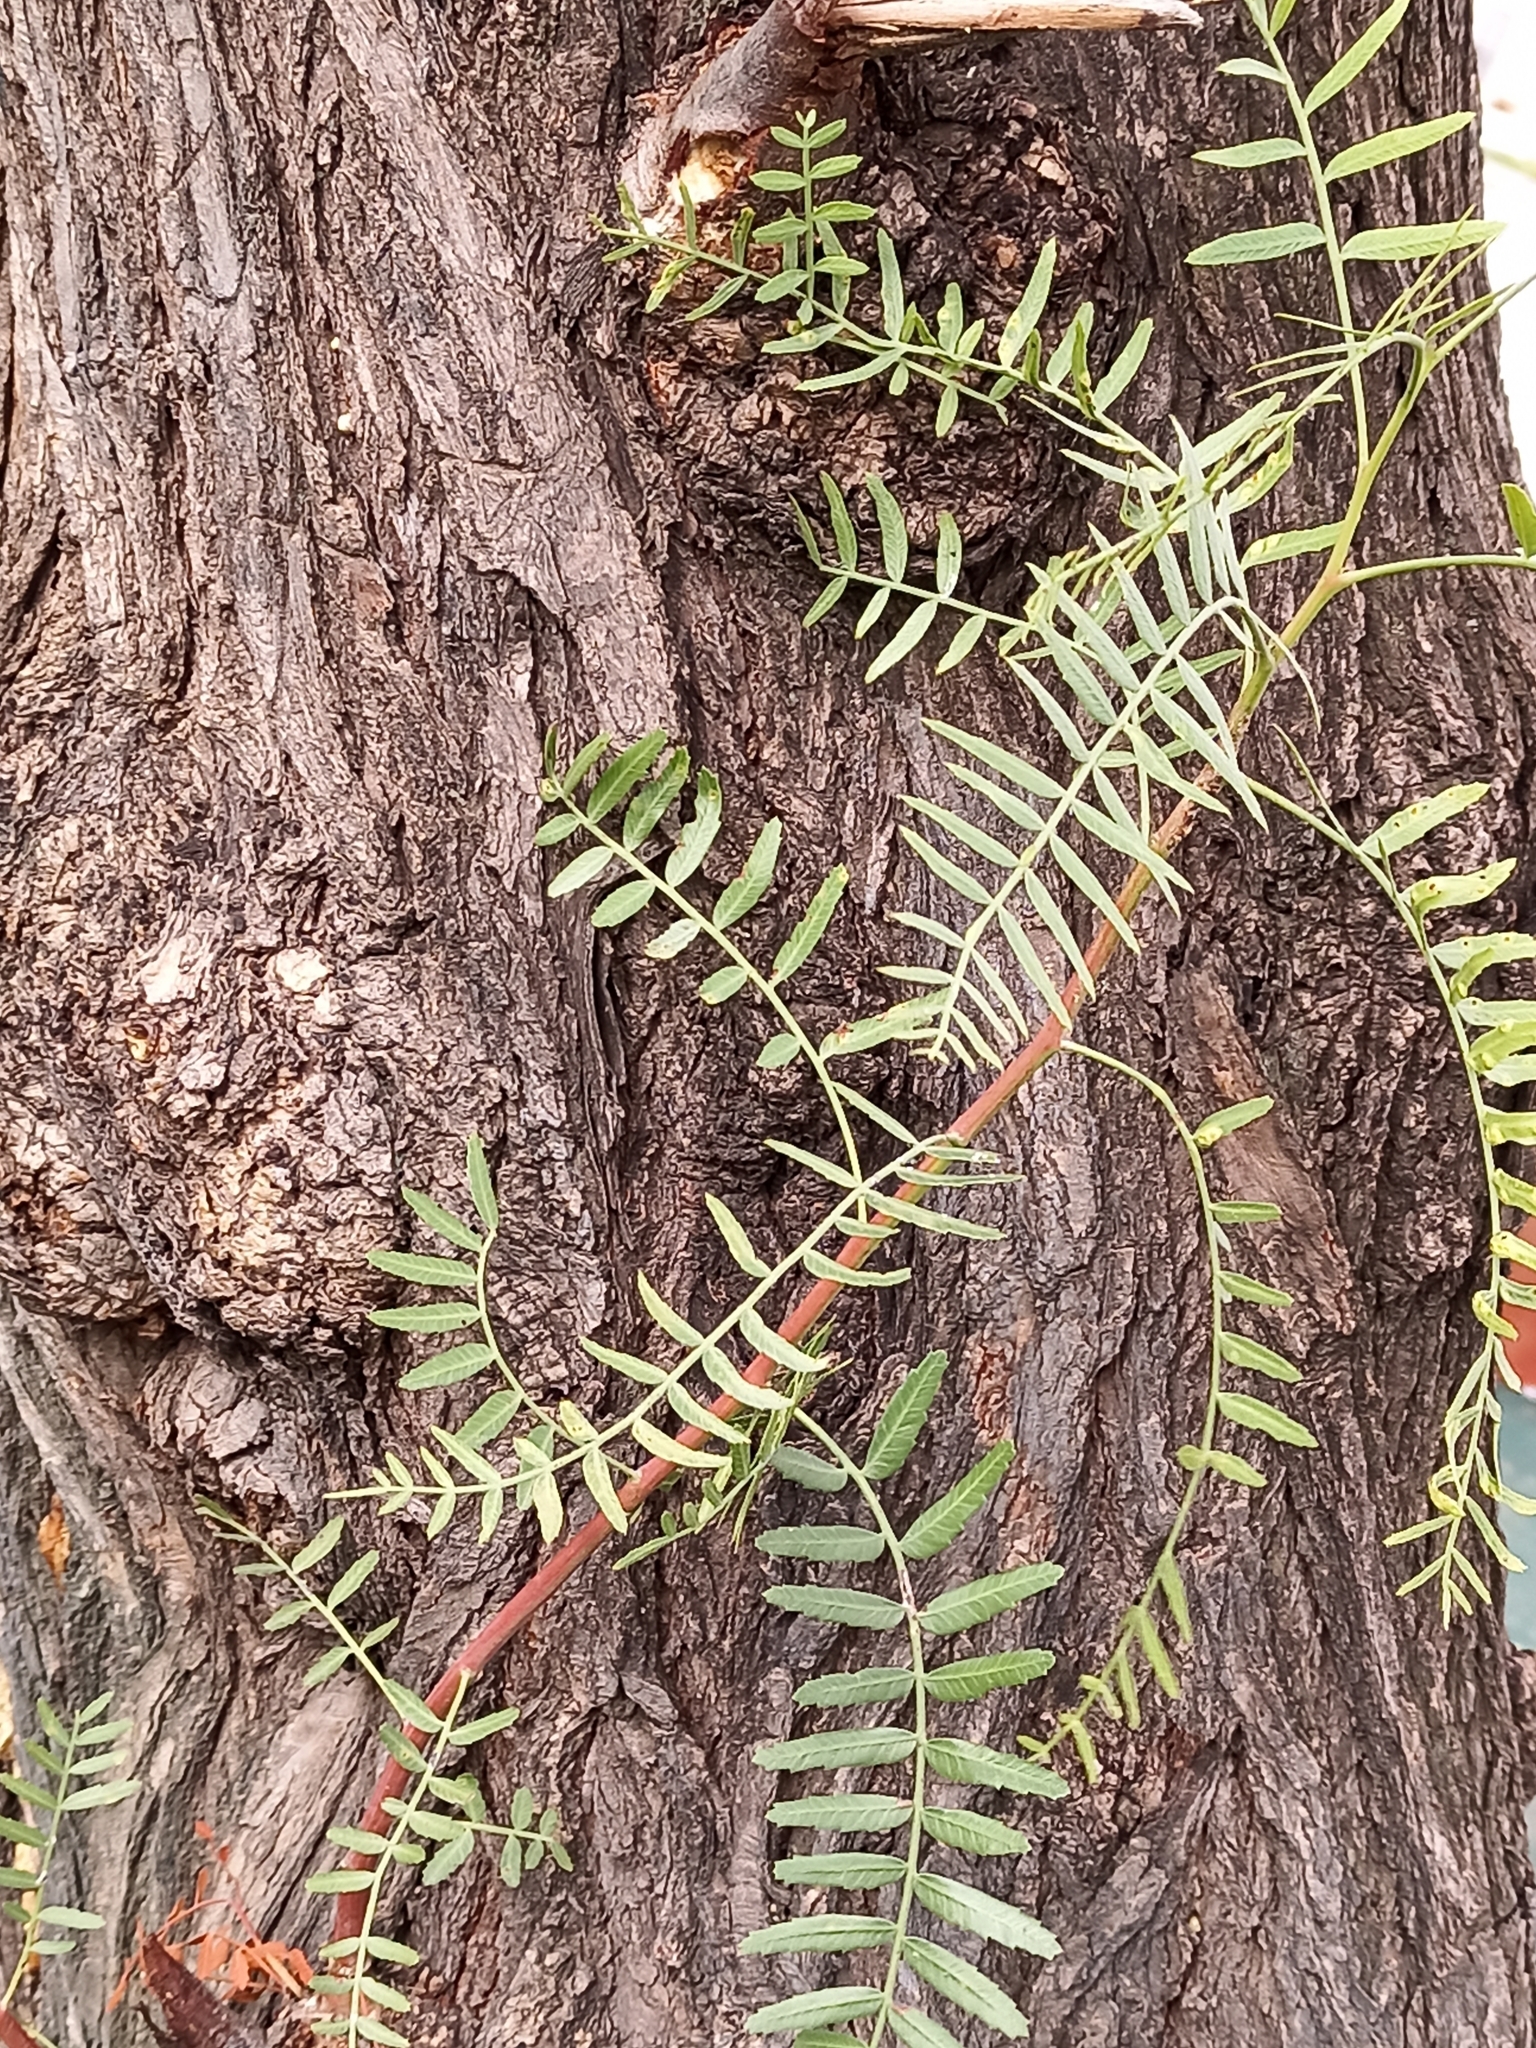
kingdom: Plantae
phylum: Tracheophyta
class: Magnoliopsida
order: Sapindales
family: Anacardiaceae
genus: Schinus
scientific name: Schinus molle
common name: Peruvian peppertree
